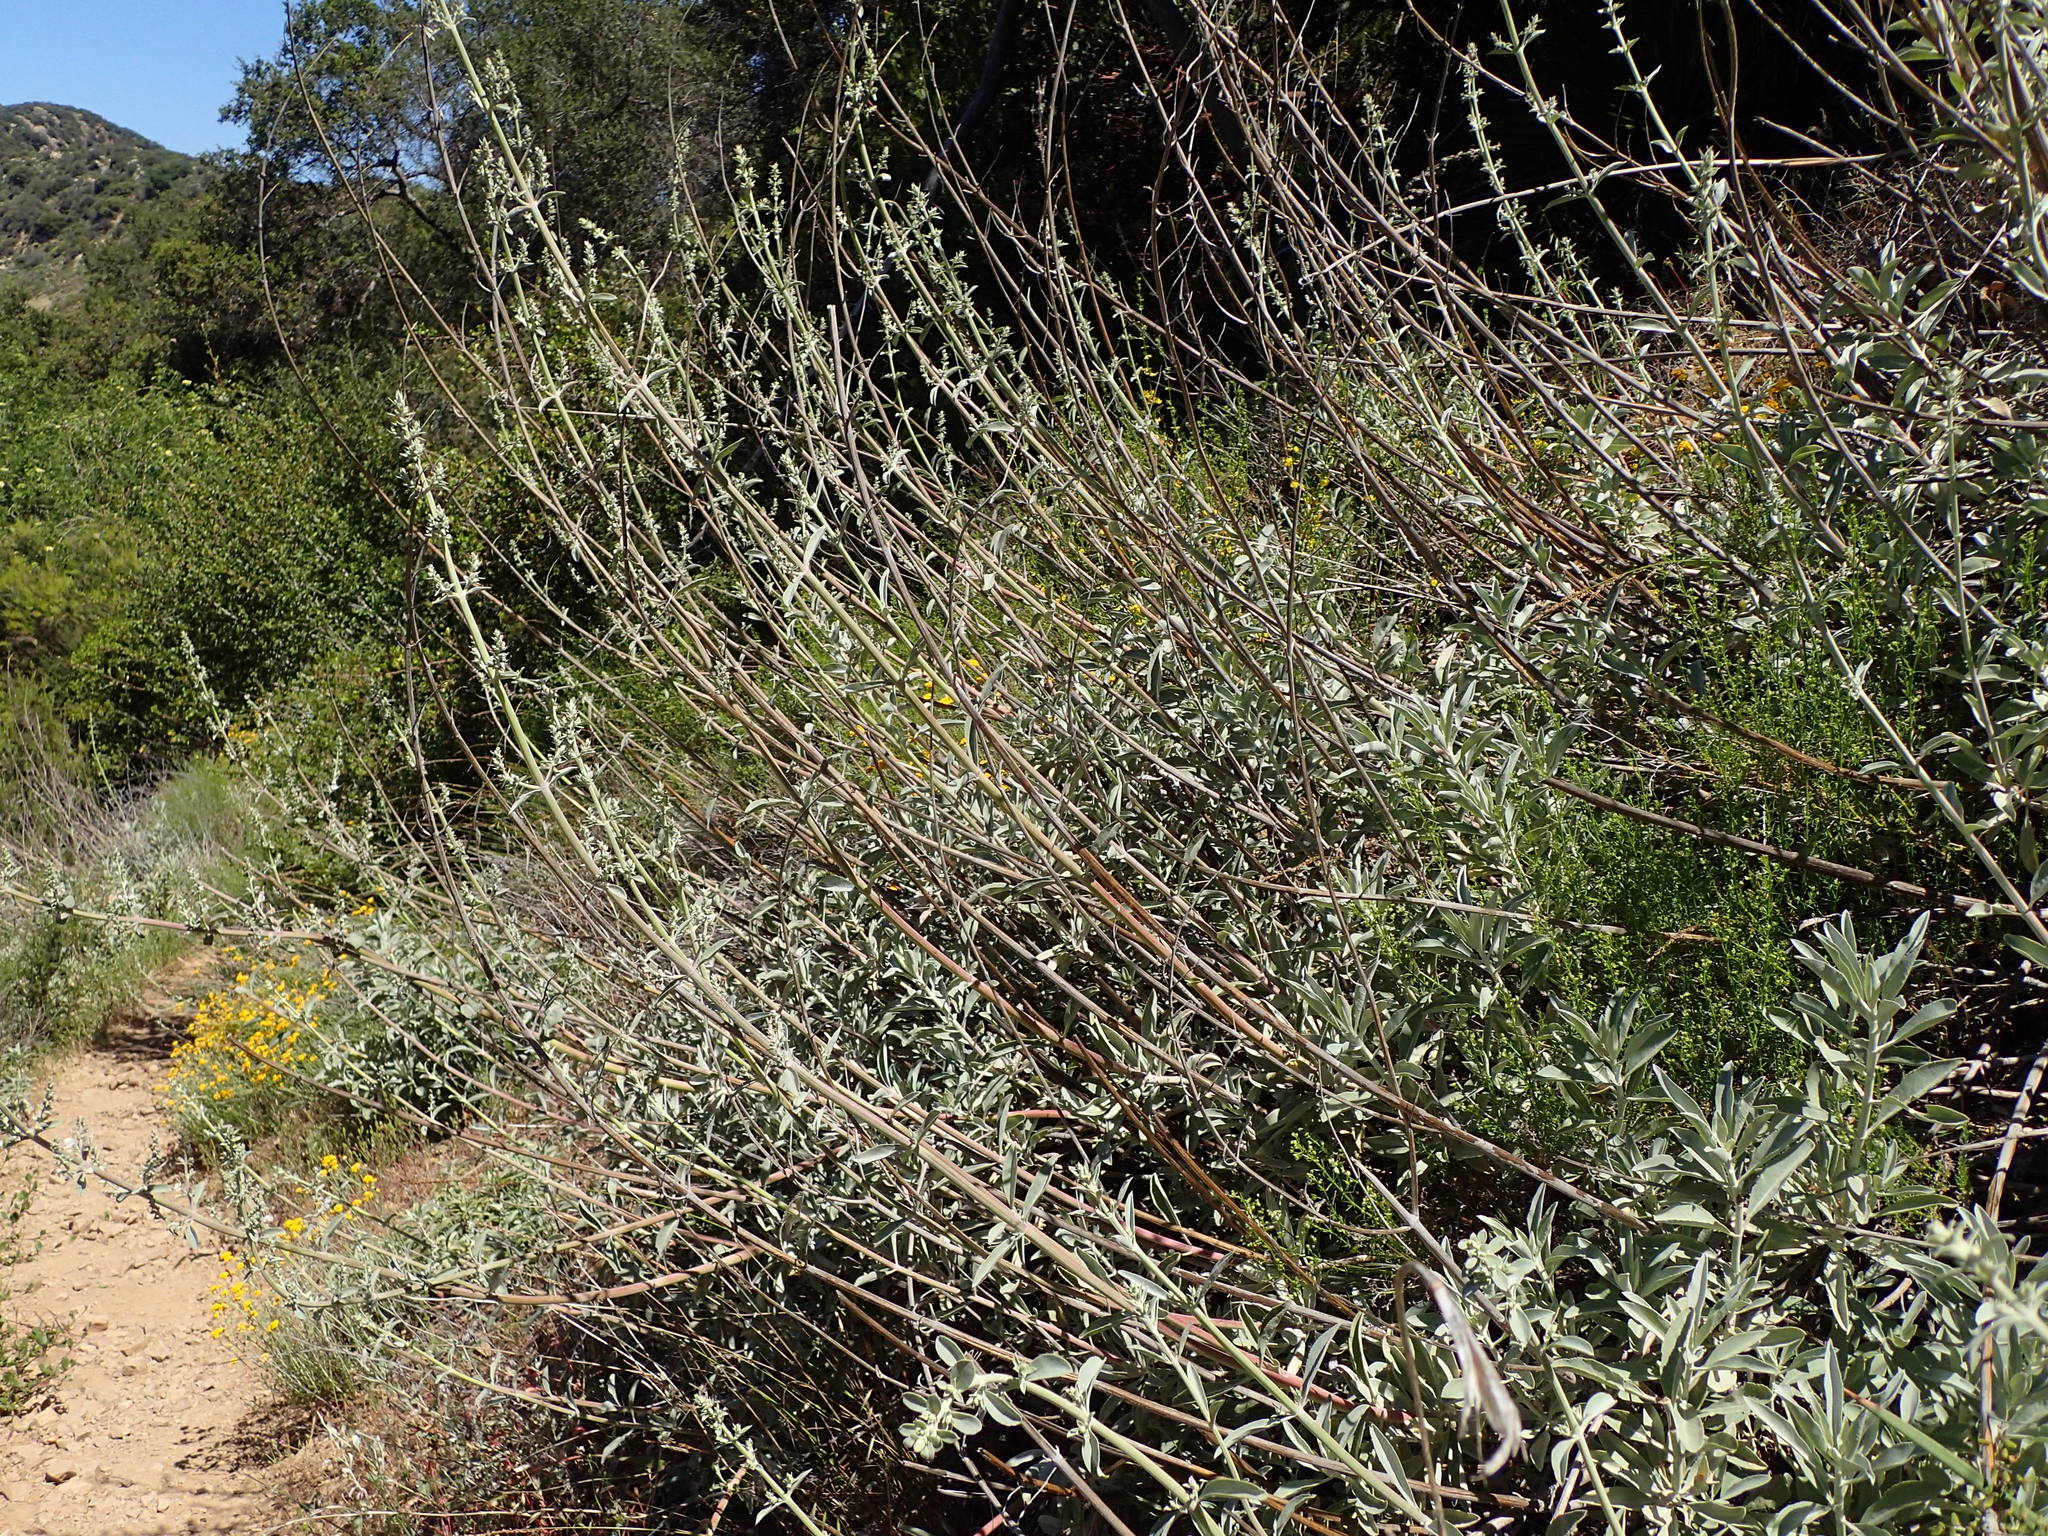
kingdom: Plantae
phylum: Tracheophyta
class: Magnoliopsida
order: Lamiales
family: Lamiaceae
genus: Salvia
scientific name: Salvia apiana
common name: White sage
